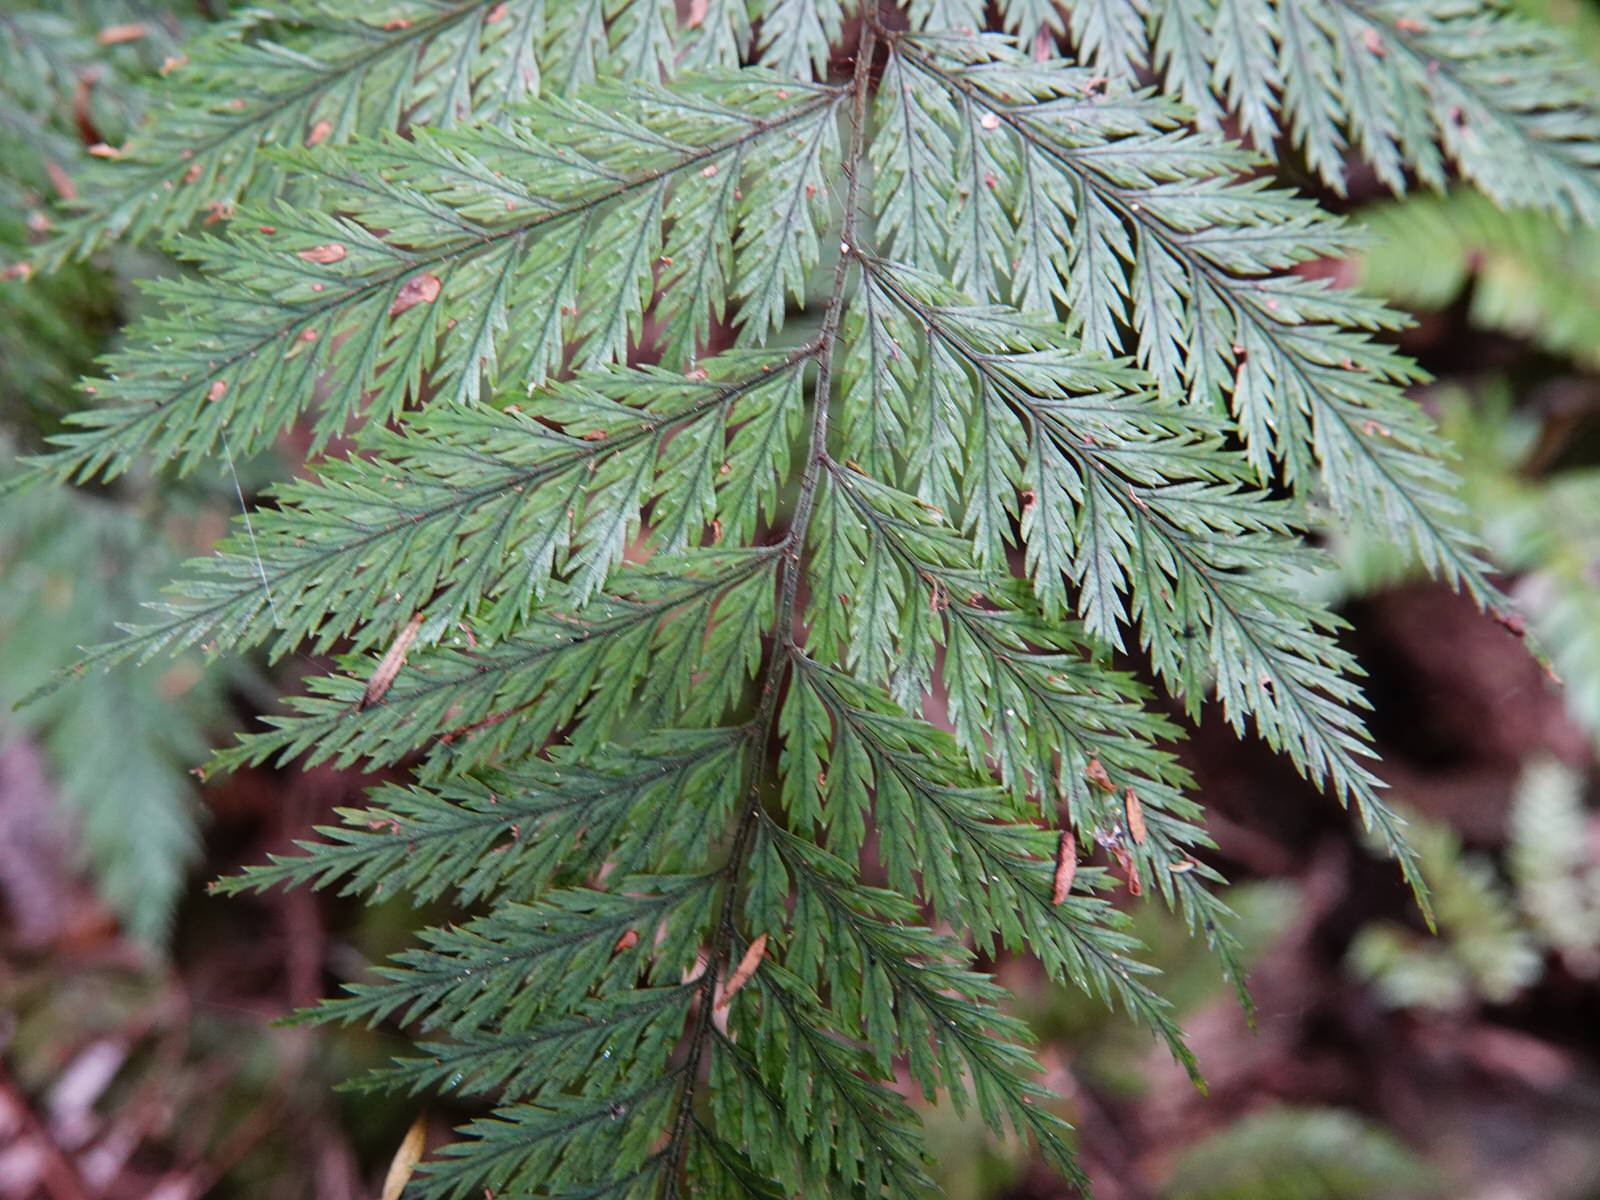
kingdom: Plantae
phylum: Tracheophyta
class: Polypodiopsida
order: Polypodiales
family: Dryopteridaceae
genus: Lastreopsis
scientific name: Lastreopsis hispida
